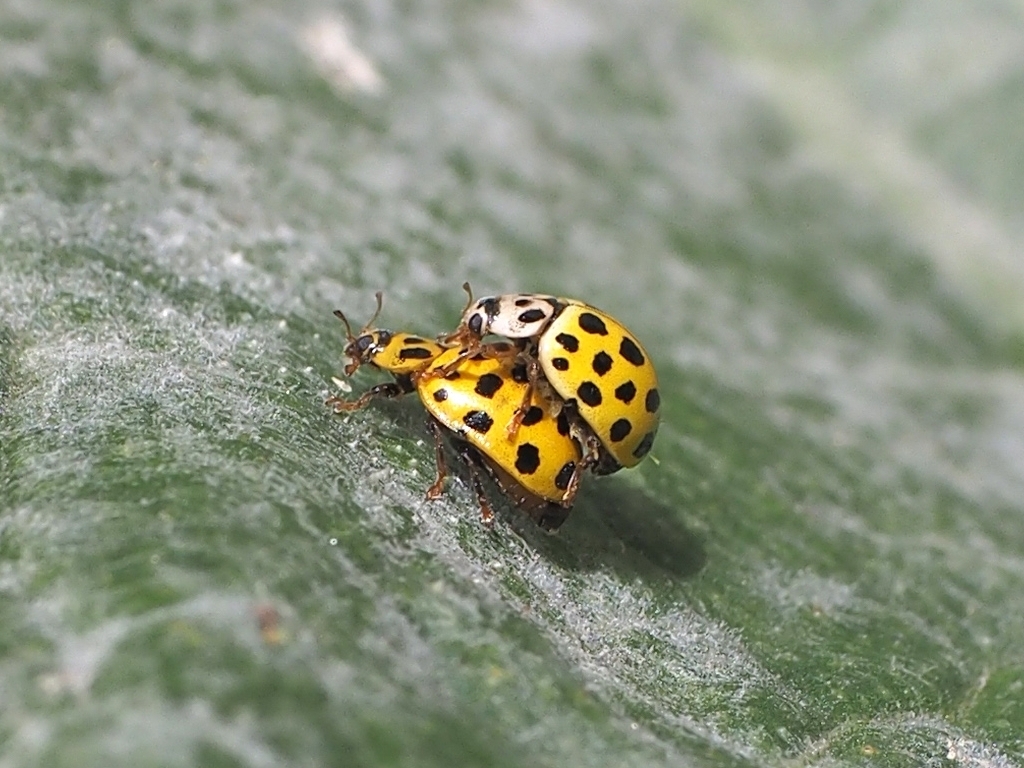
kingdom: Animalia
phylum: Arthropoda
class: Insecta
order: Coleoptera
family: Coccinellidae
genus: Psyllobora
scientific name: Psyllobora vigintiduopunctata
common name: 22-spot ladybird
